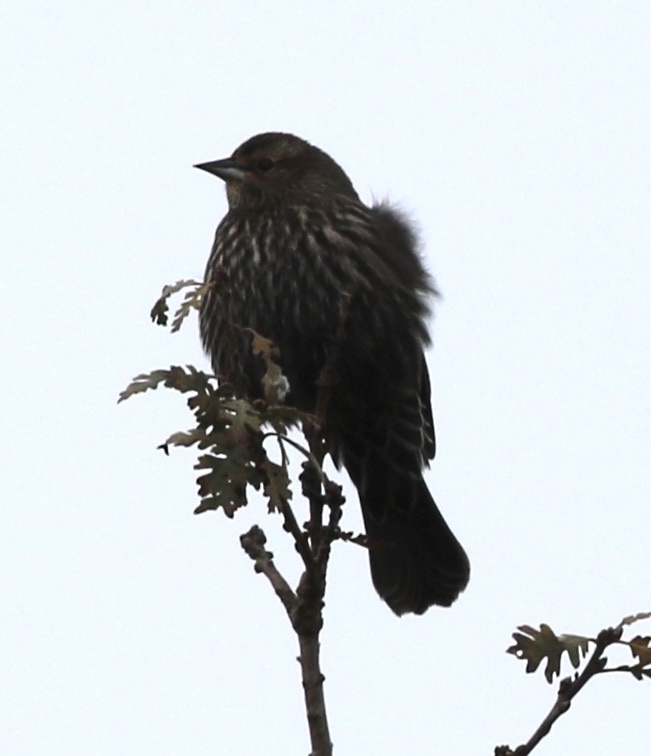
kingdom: Animalia
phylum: Chordata
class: Aves
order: Passeriformes
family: Icteridae
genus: Agelaius
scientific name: Agelaius phoeniceus
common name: Red-winged blackbird
